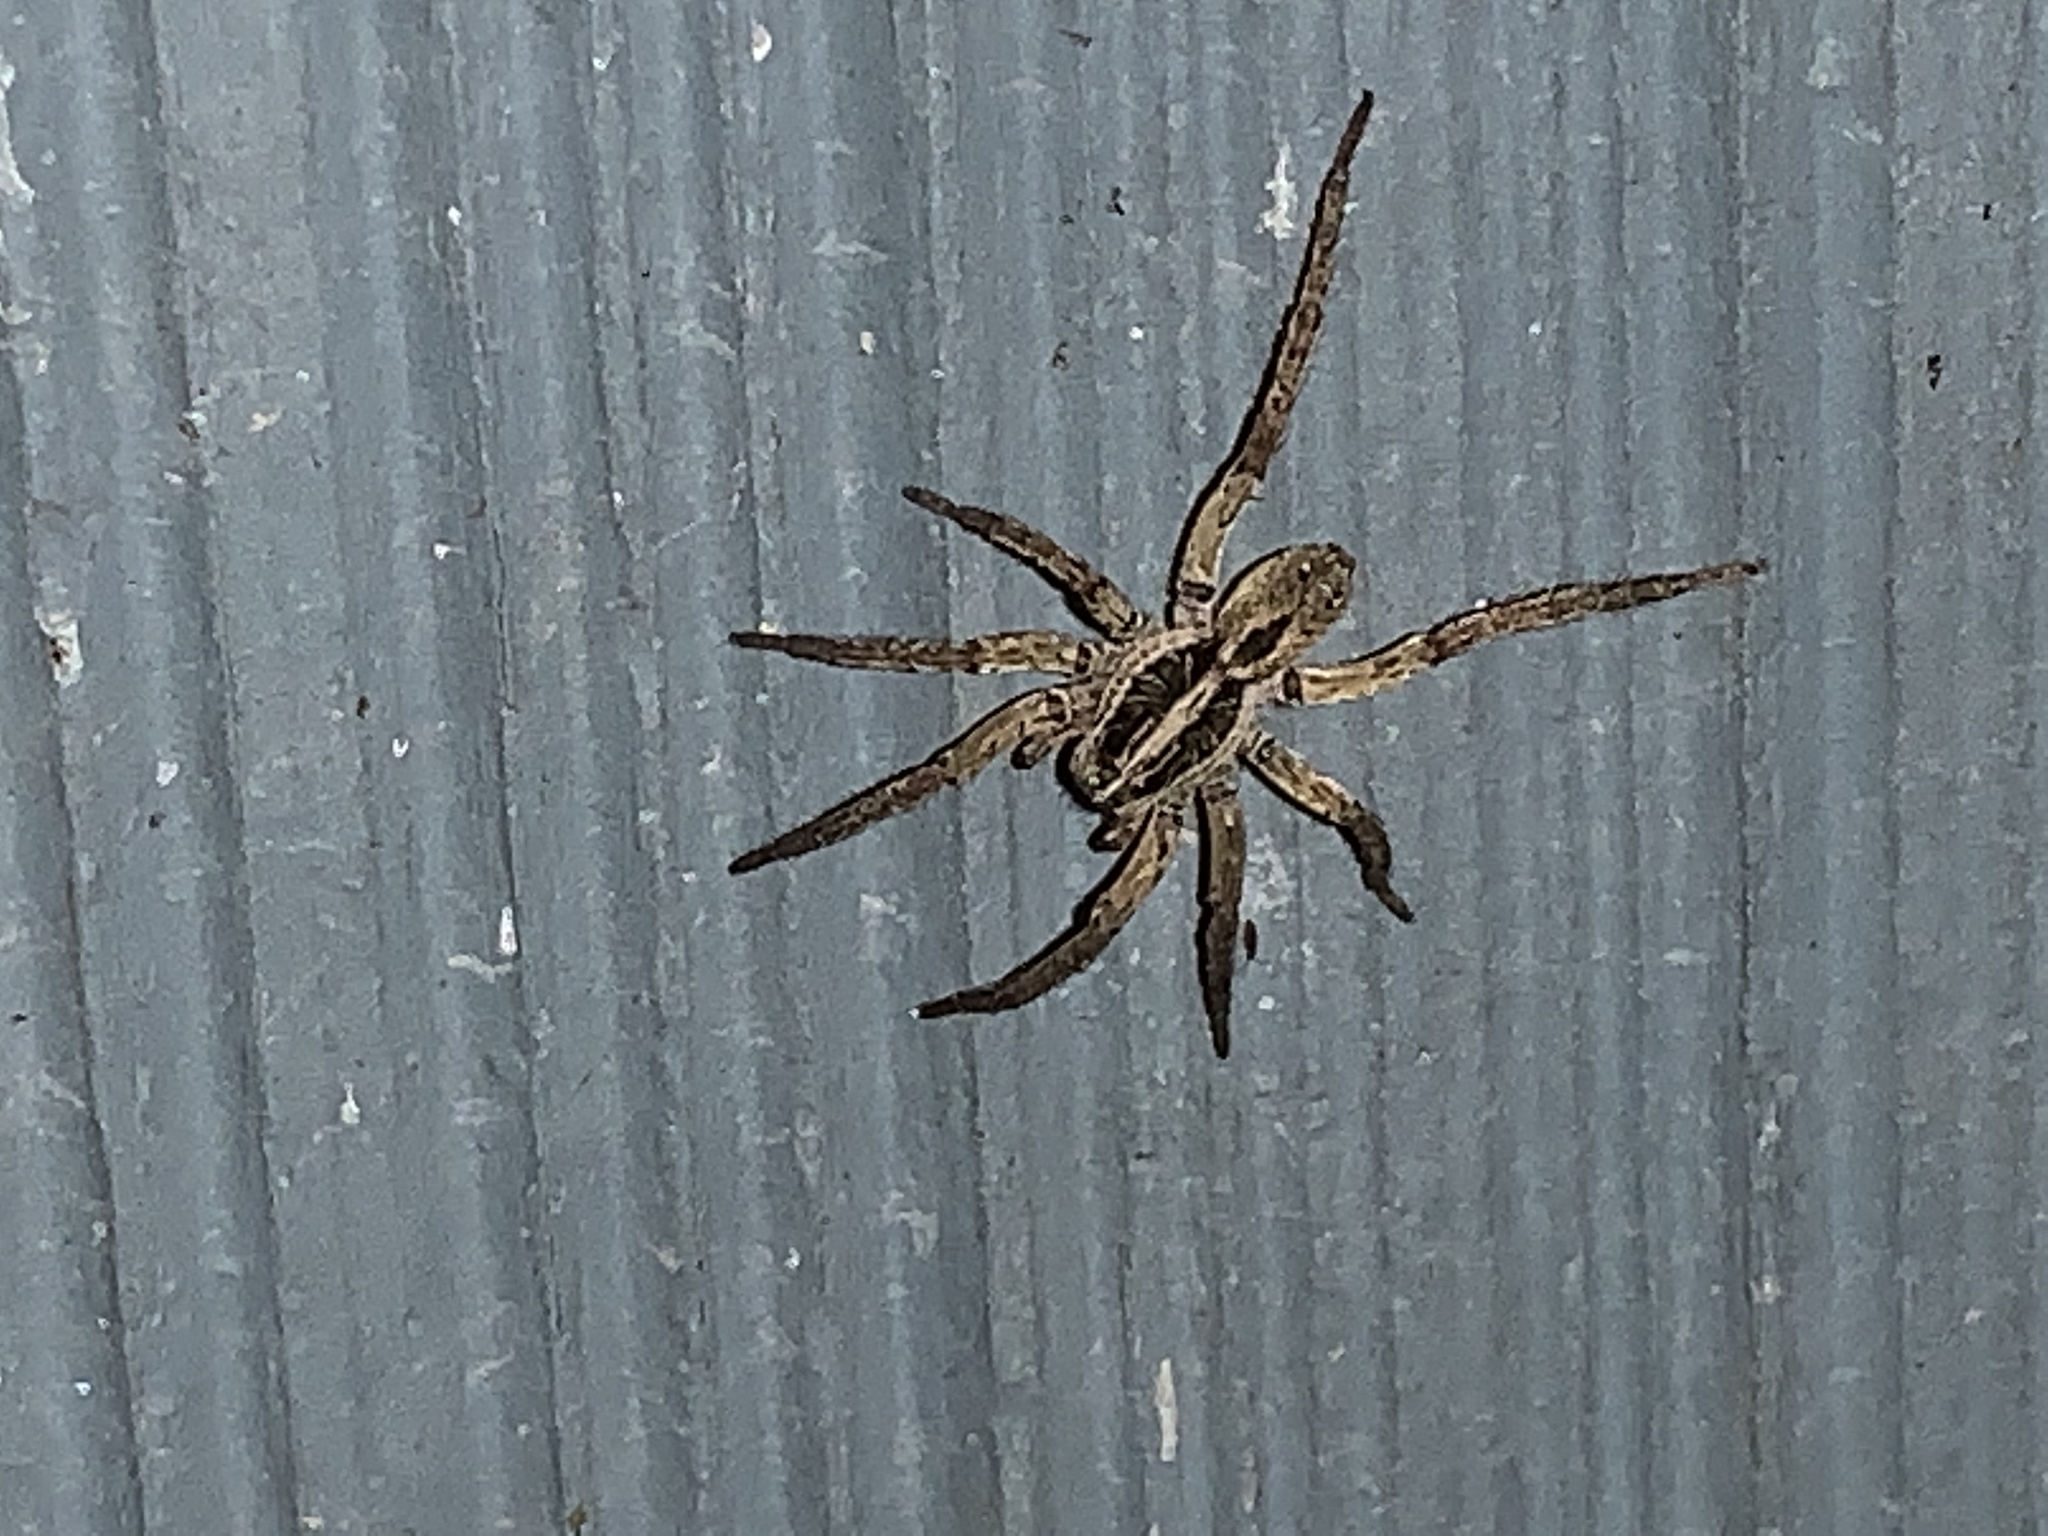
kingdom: Animalia
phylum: Arthropoda
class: Arachnida
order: Araneae
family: Lycosidae
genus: Tigrosa
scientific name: Tigrosa annexa
